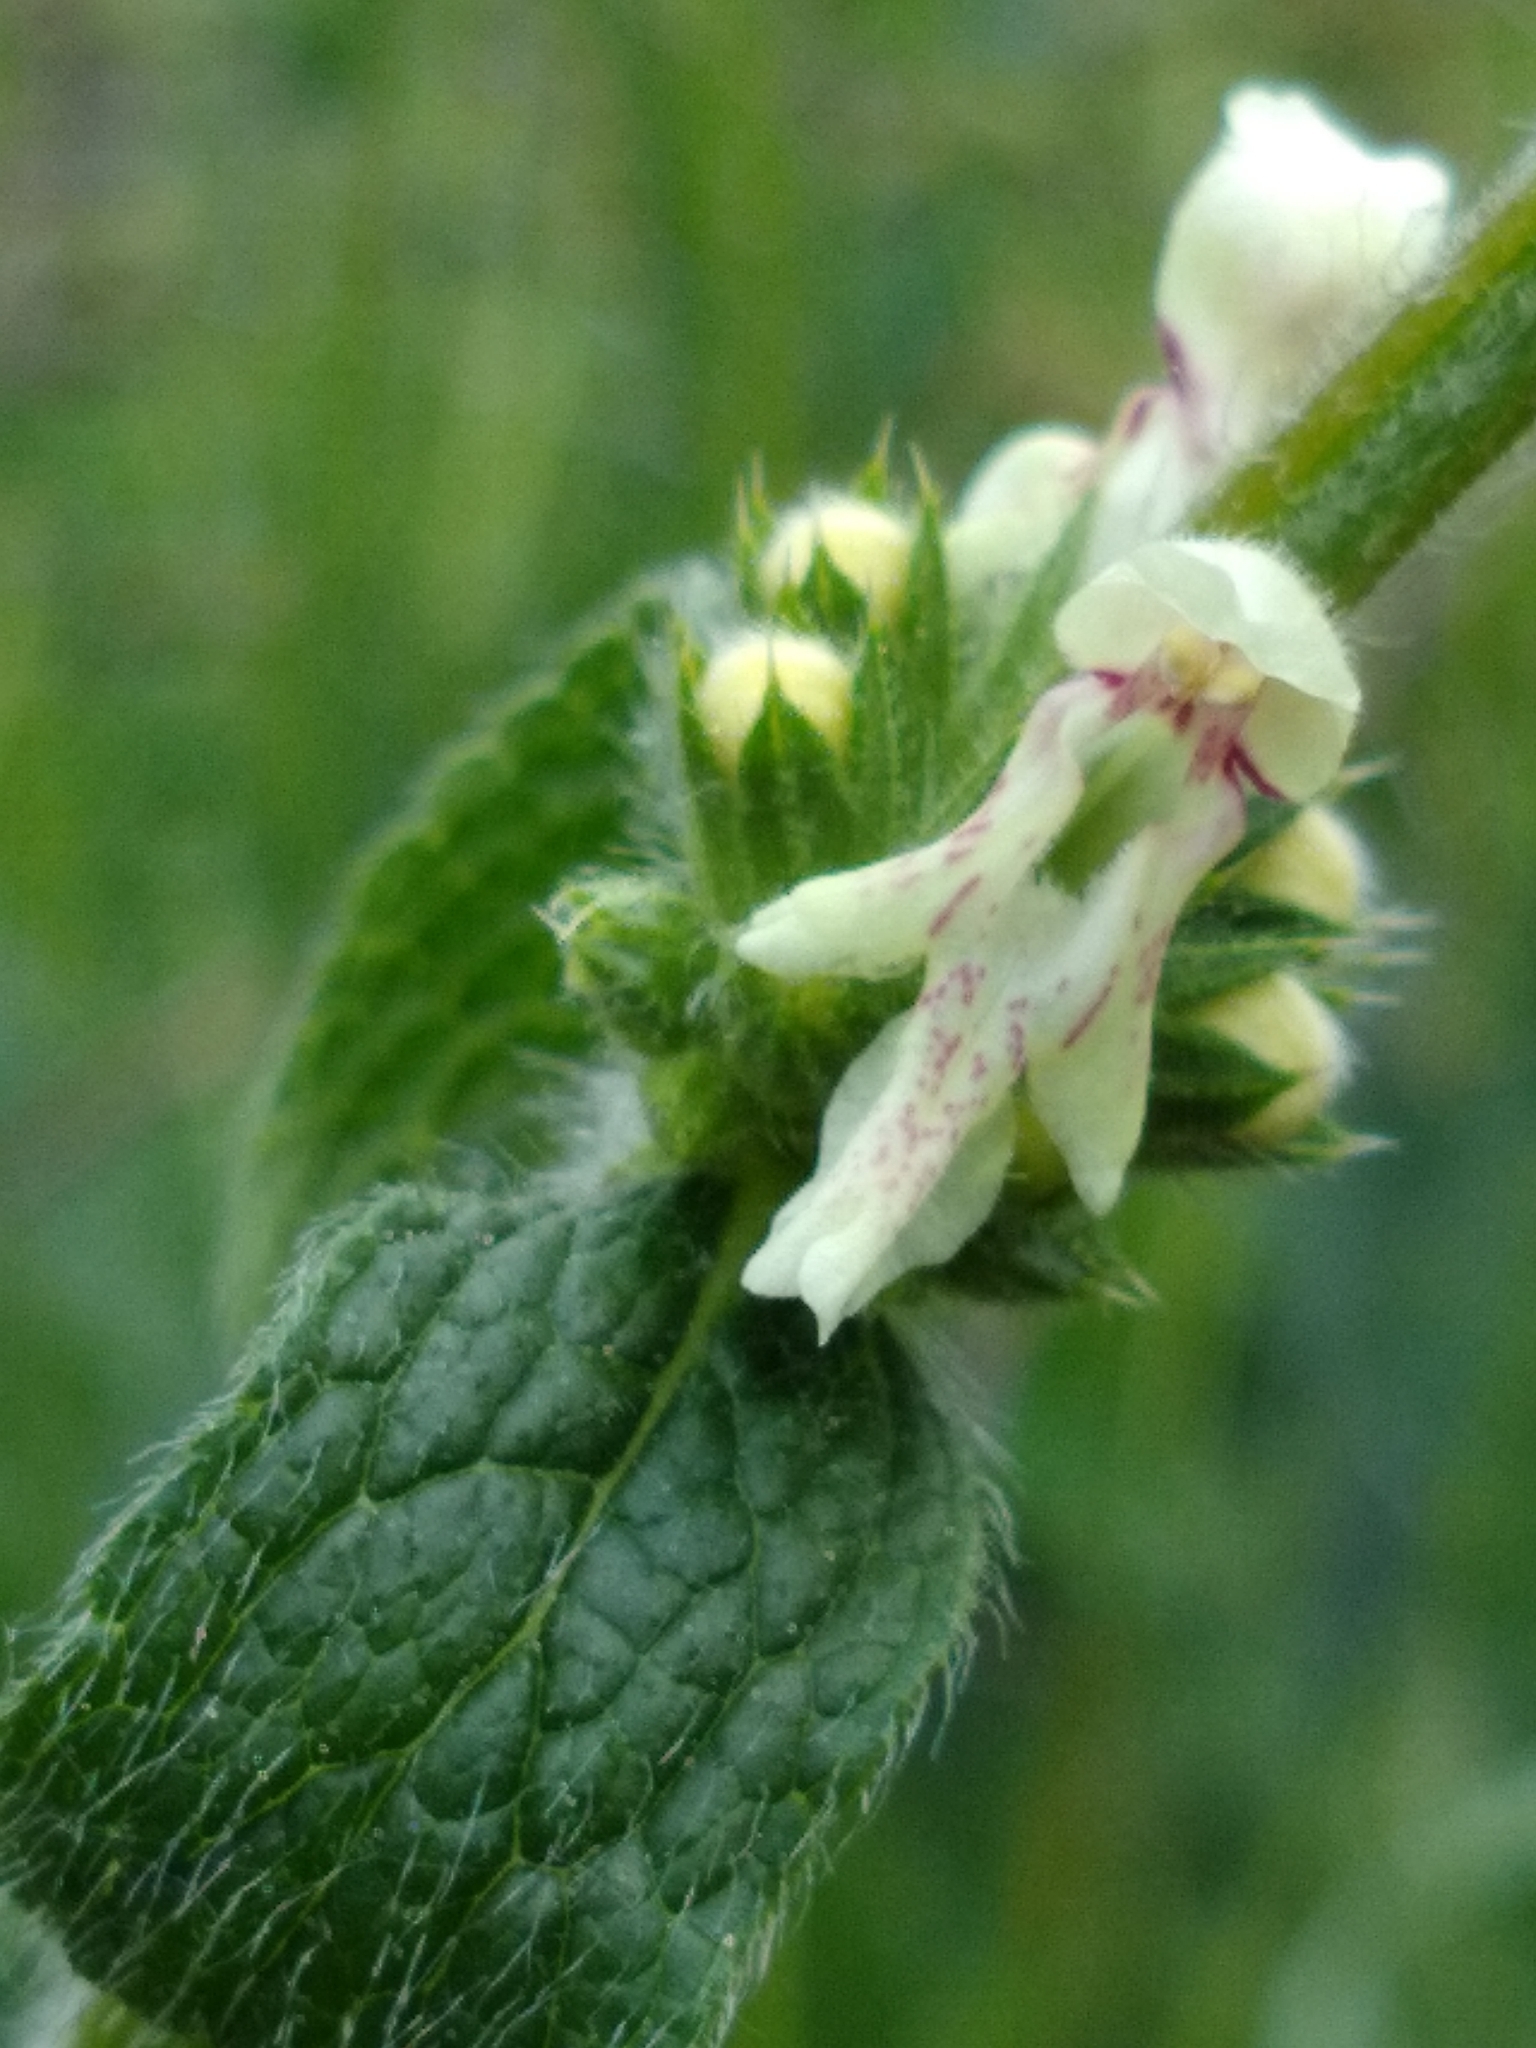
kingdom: Plantae
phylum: Tracheophyta
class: Magnoliopsida
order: Lamiales
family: Lamiaceae
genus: Stachys
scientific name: Stachys recta
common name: Perennial yellow-woundwort
